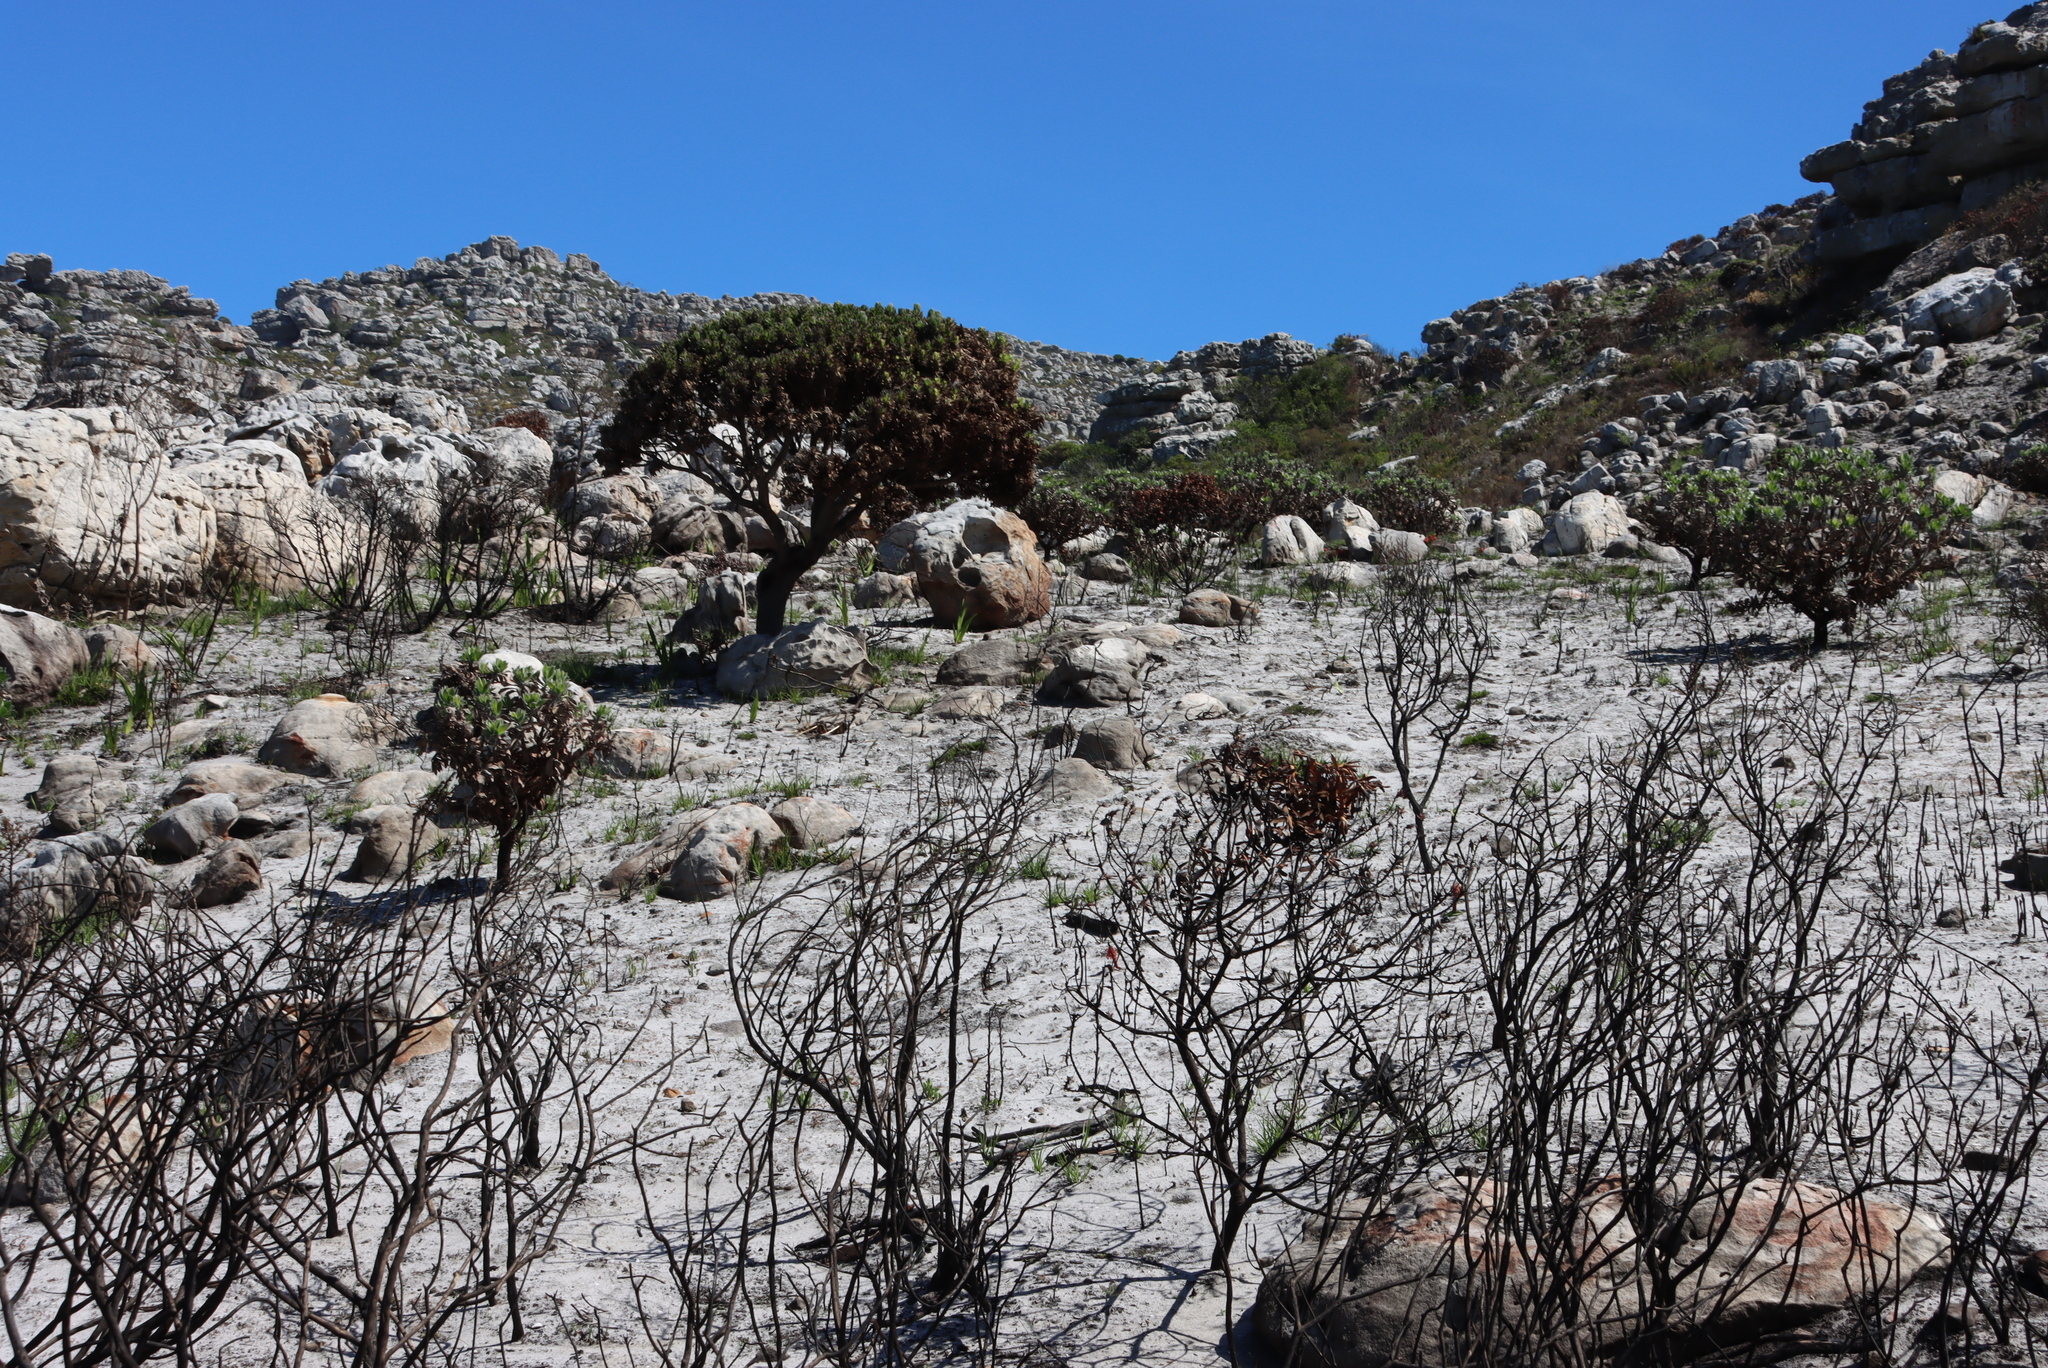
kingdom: Plantae
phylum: Tracheophyta
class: Magnoliopsida
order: Proteales
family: Proteaceae
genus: Mimetes
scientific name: Mimetes fimbriifolius
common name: Fringed bottlebrush
